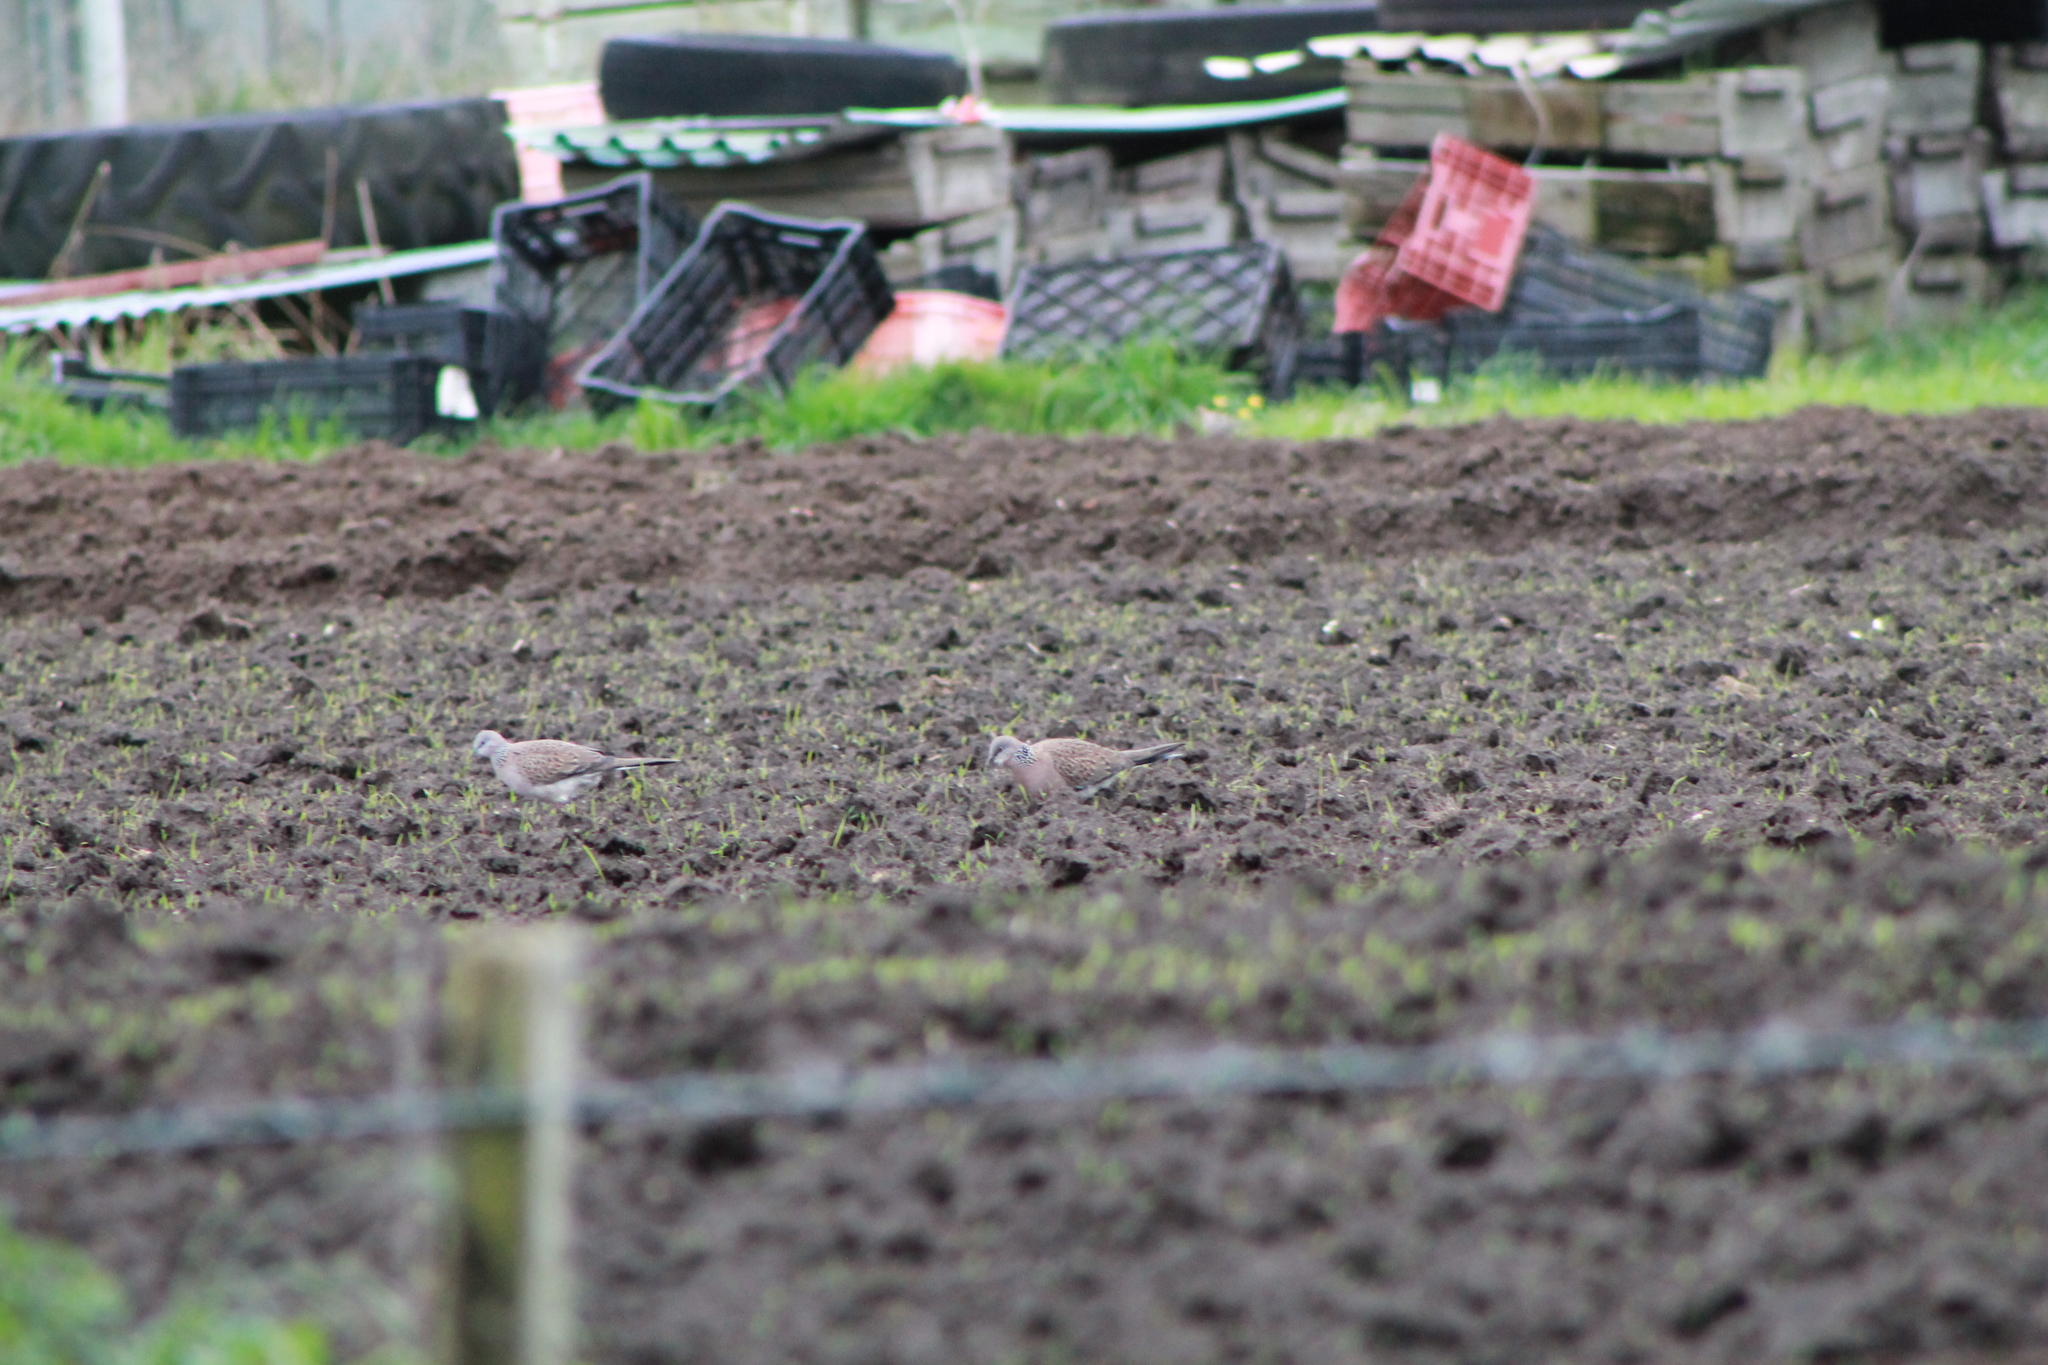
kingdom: Animalia
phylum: Chordata
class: Aves
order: Columbiformes
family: Columbidae
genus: Spilopelia
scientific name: Spilopelia chinensis
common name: Spotted dove
